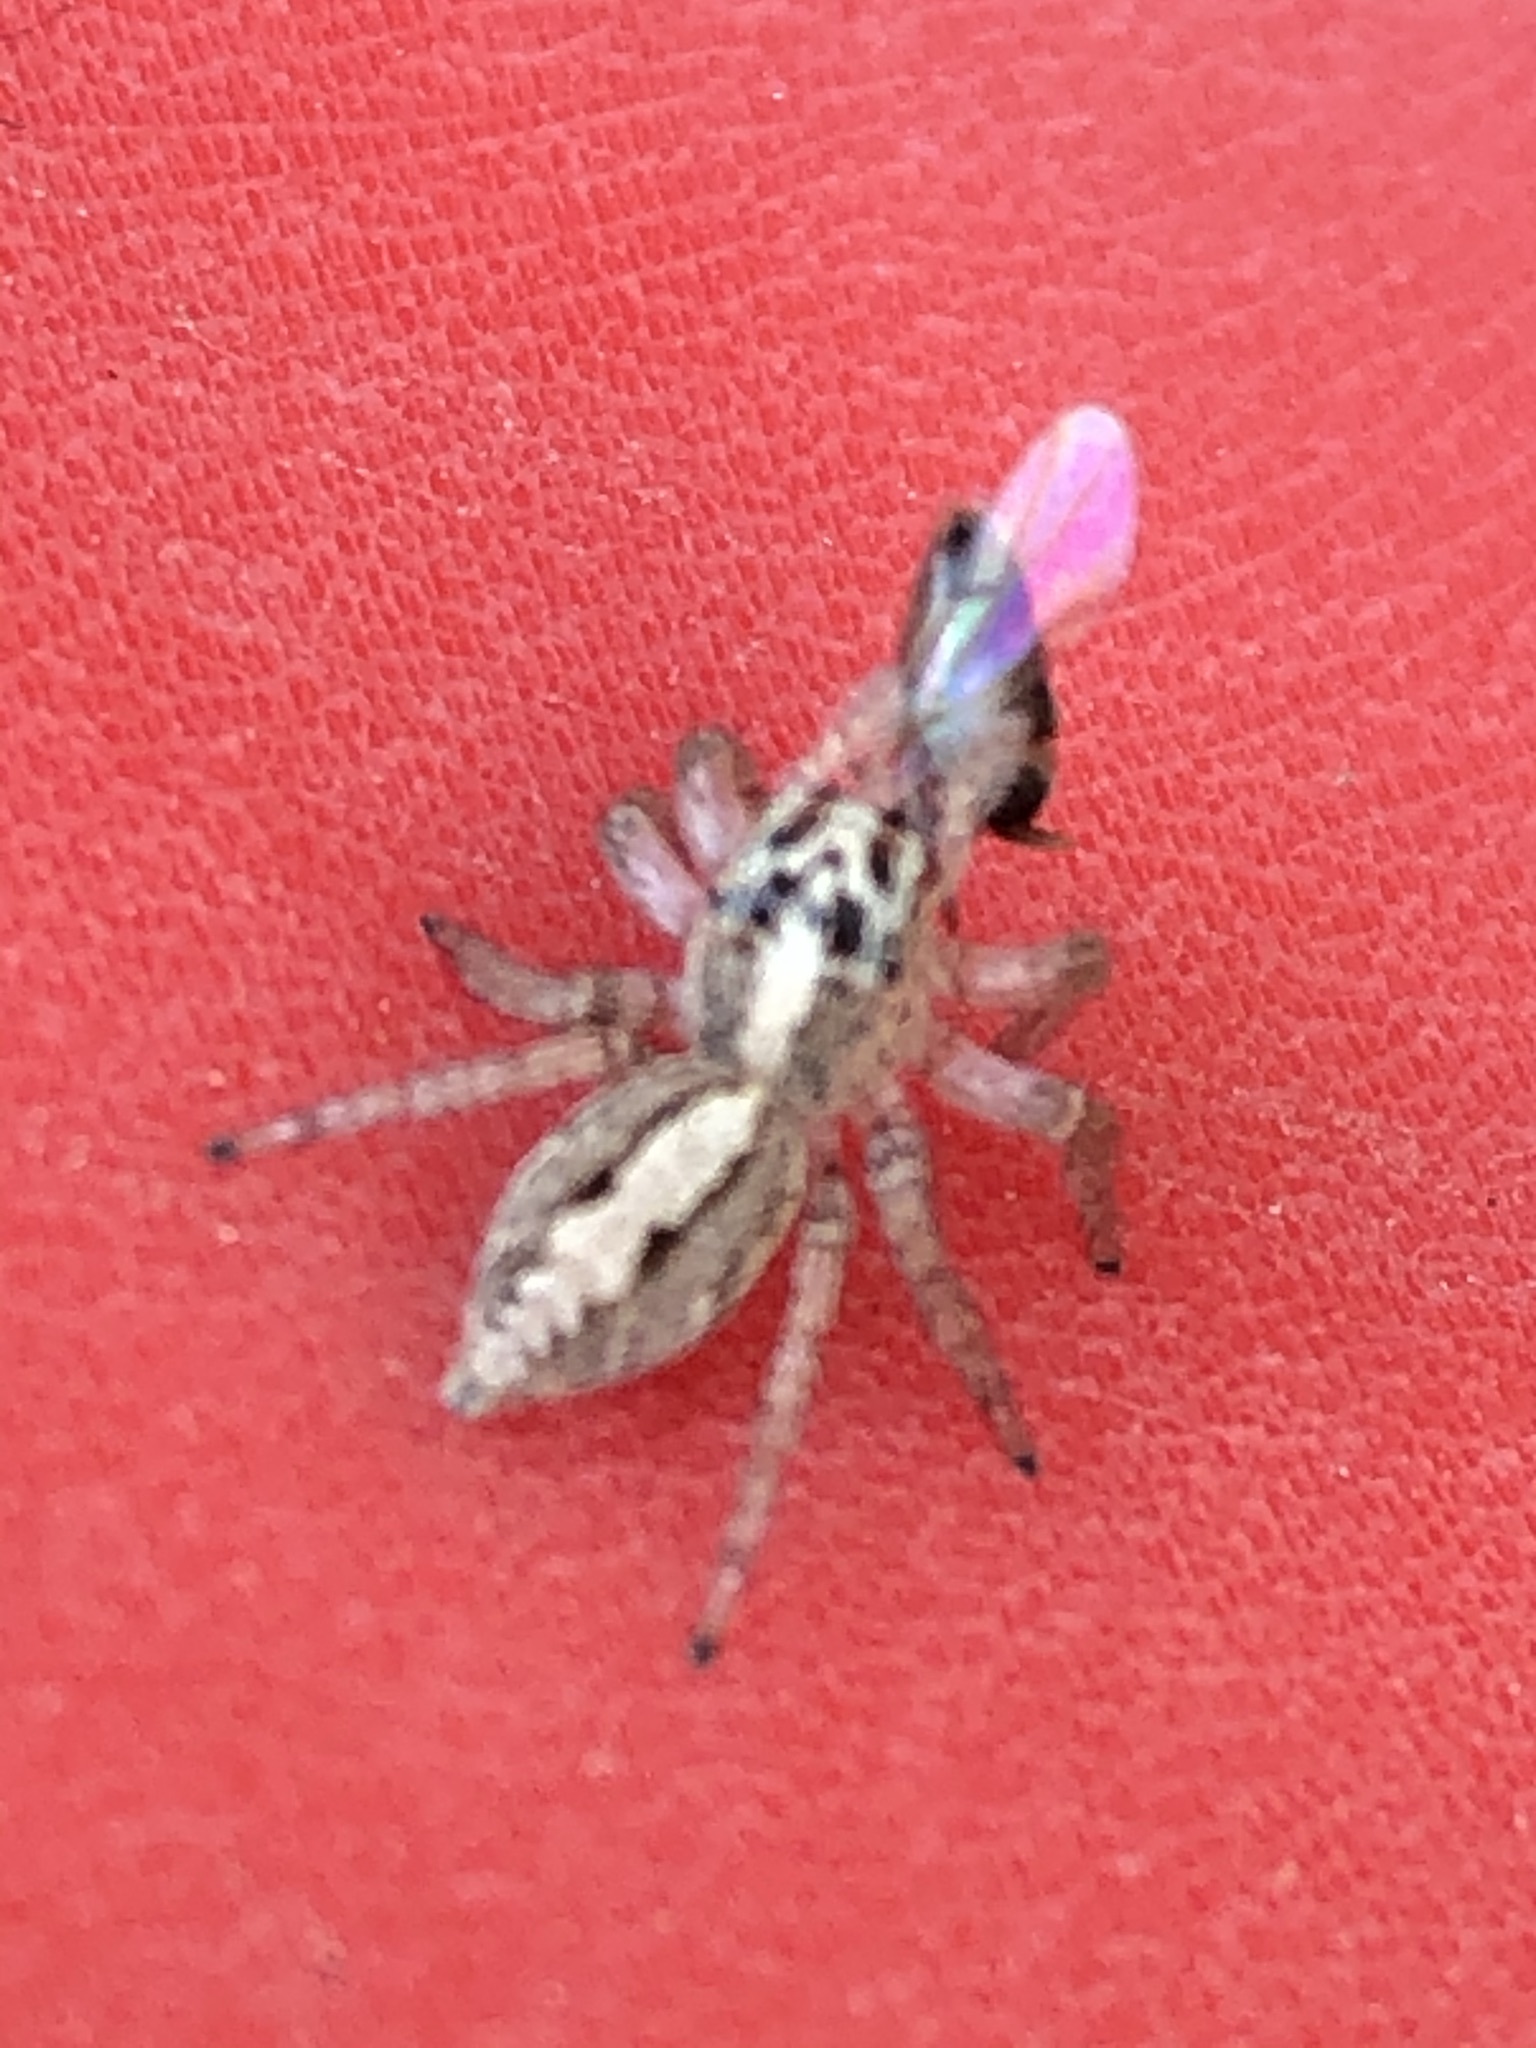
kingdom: Animalia
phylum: Arthropoda
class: Arachnida
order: Araneae
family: Salticidae
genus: Frigga
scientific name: Frigga crocuta
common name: Jumping spiders
